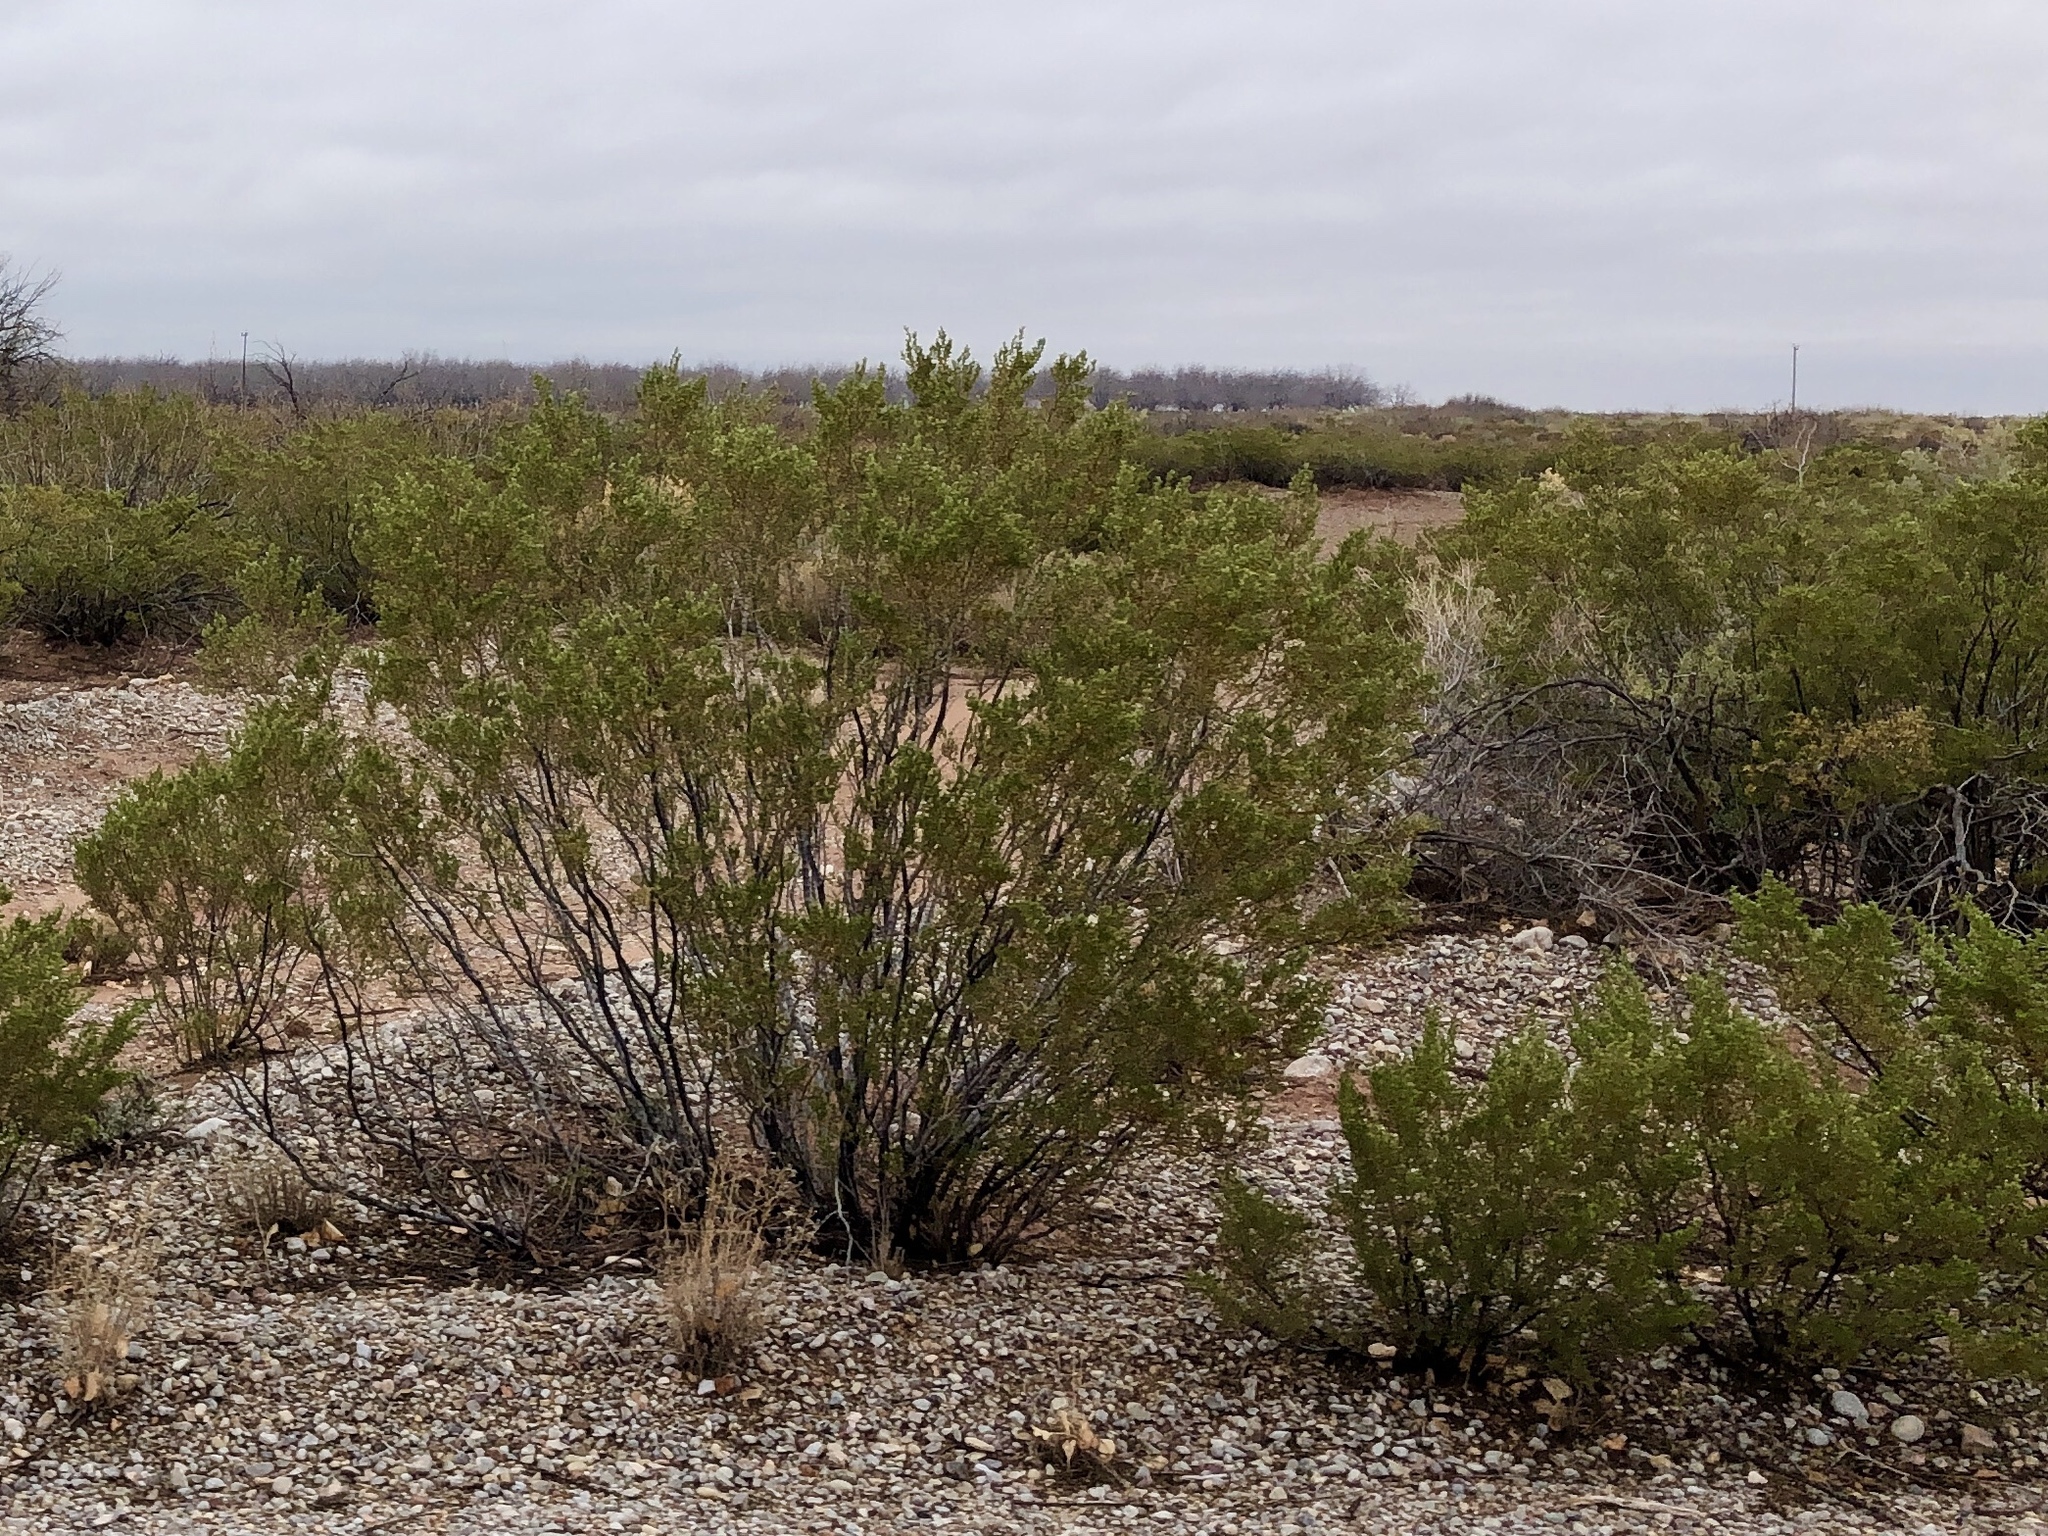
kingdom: Plantae
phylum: Tracheophyta
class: Magnoliopsida
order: Zygophyllales
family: Zygophyllaceae
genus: Larrea
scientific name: Larrea tridentata
